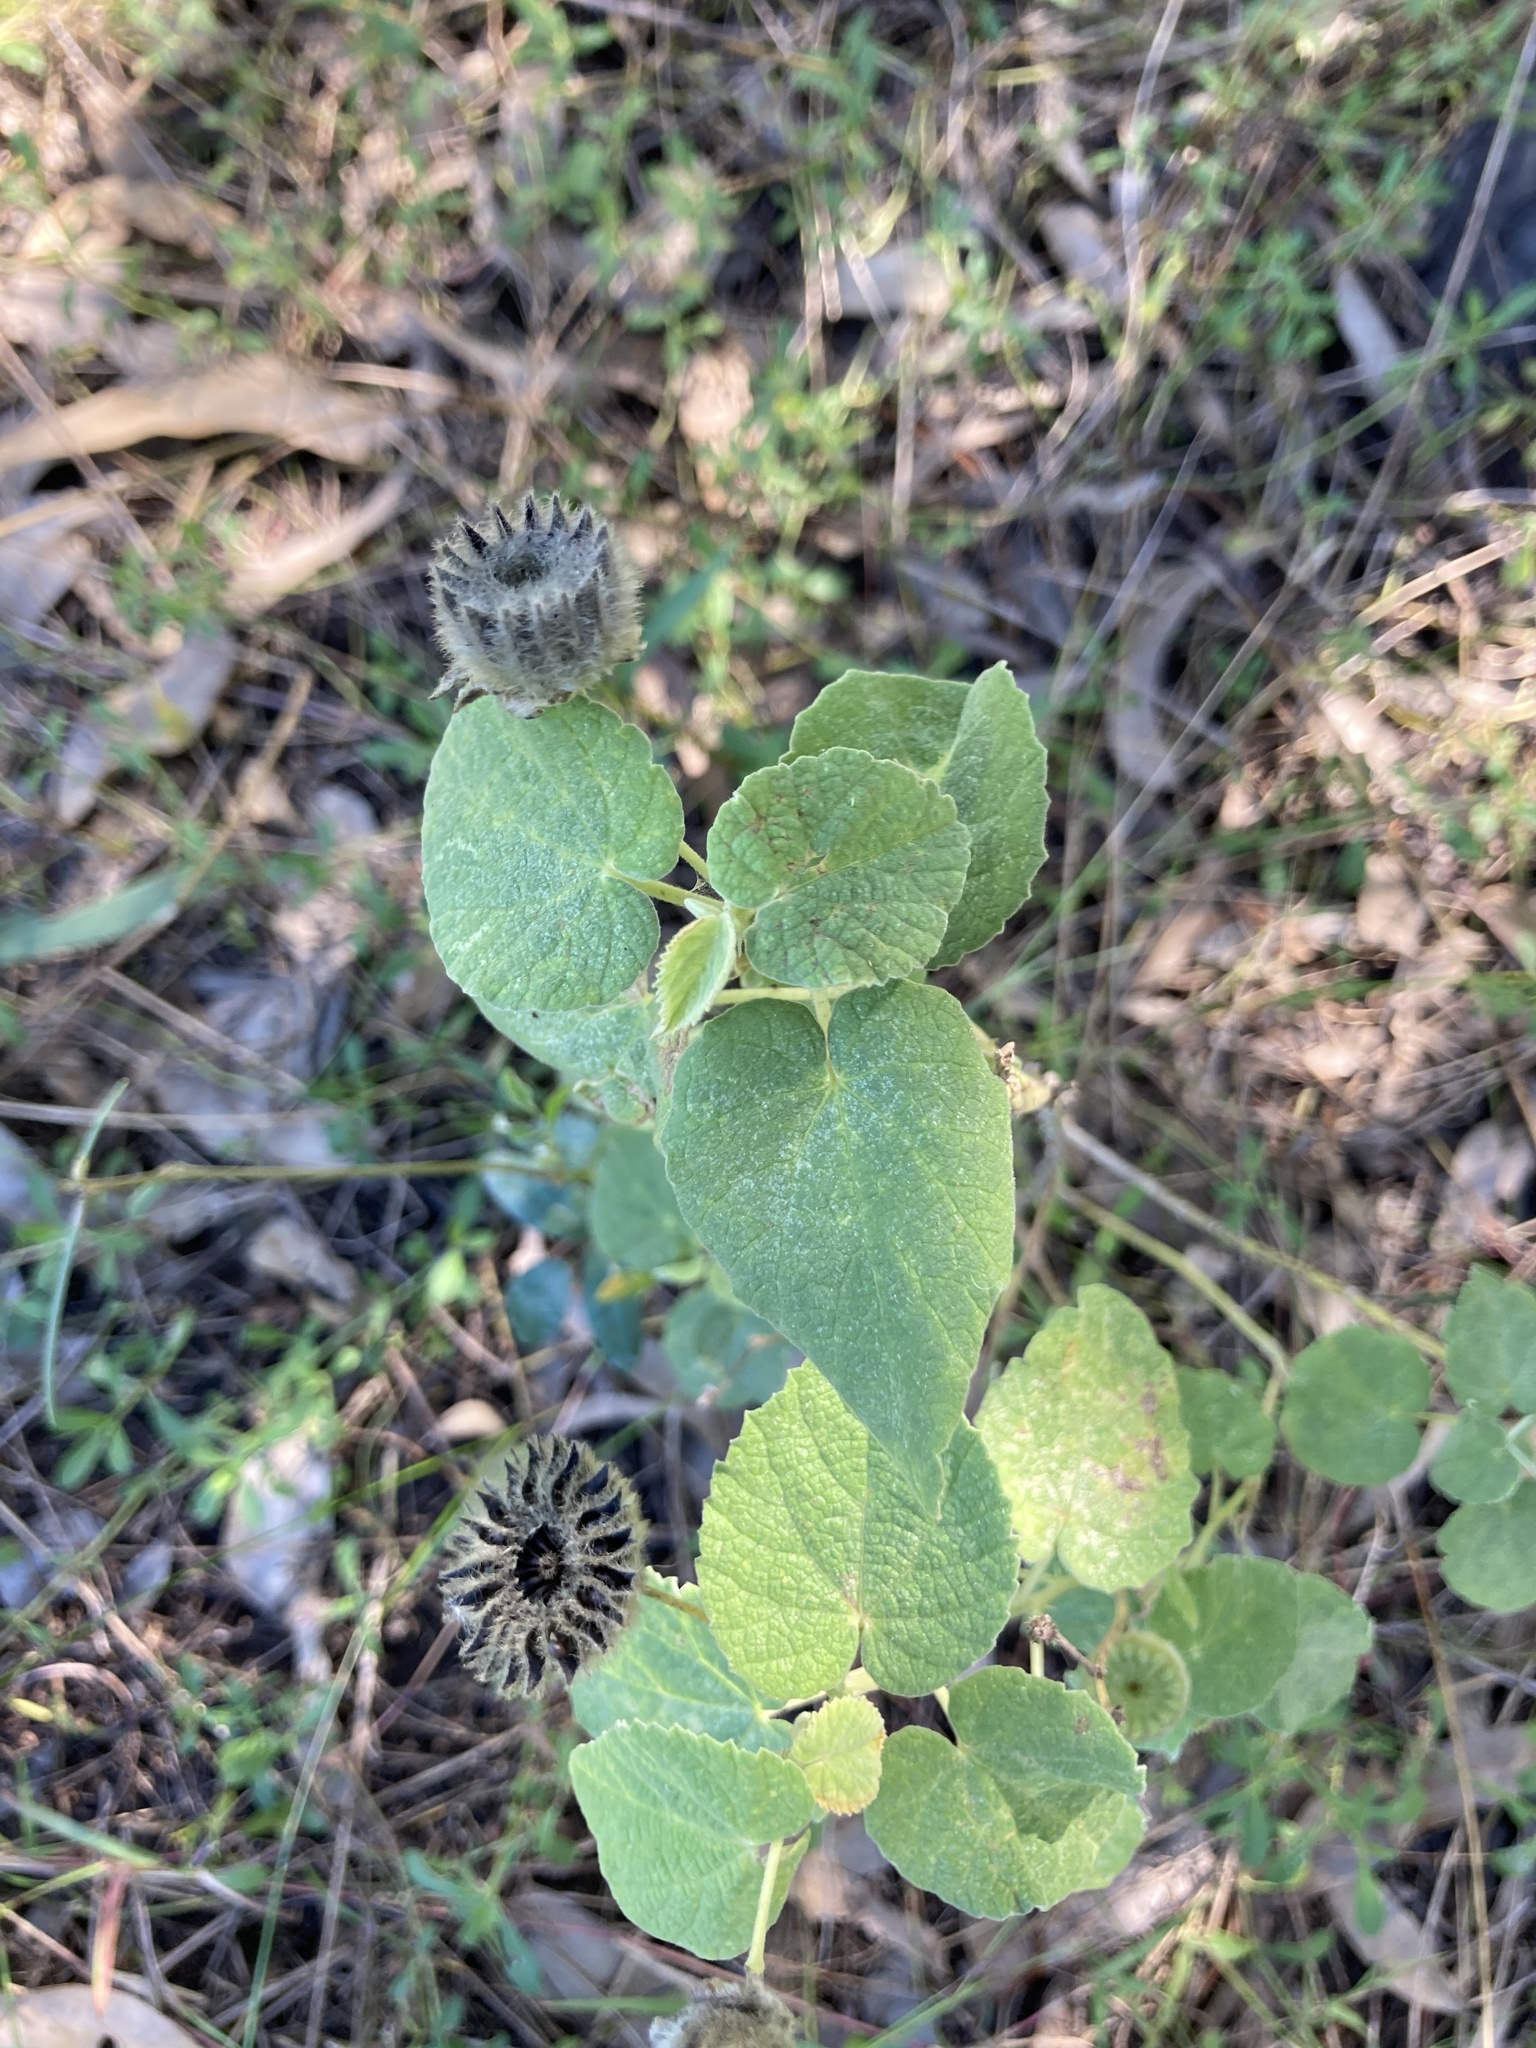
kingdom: Plantae
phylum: Tracheophyta
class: Magnoliopsida
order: Malvales
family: Malvaceae
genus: Abutilon
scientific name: Abutilon guineense
